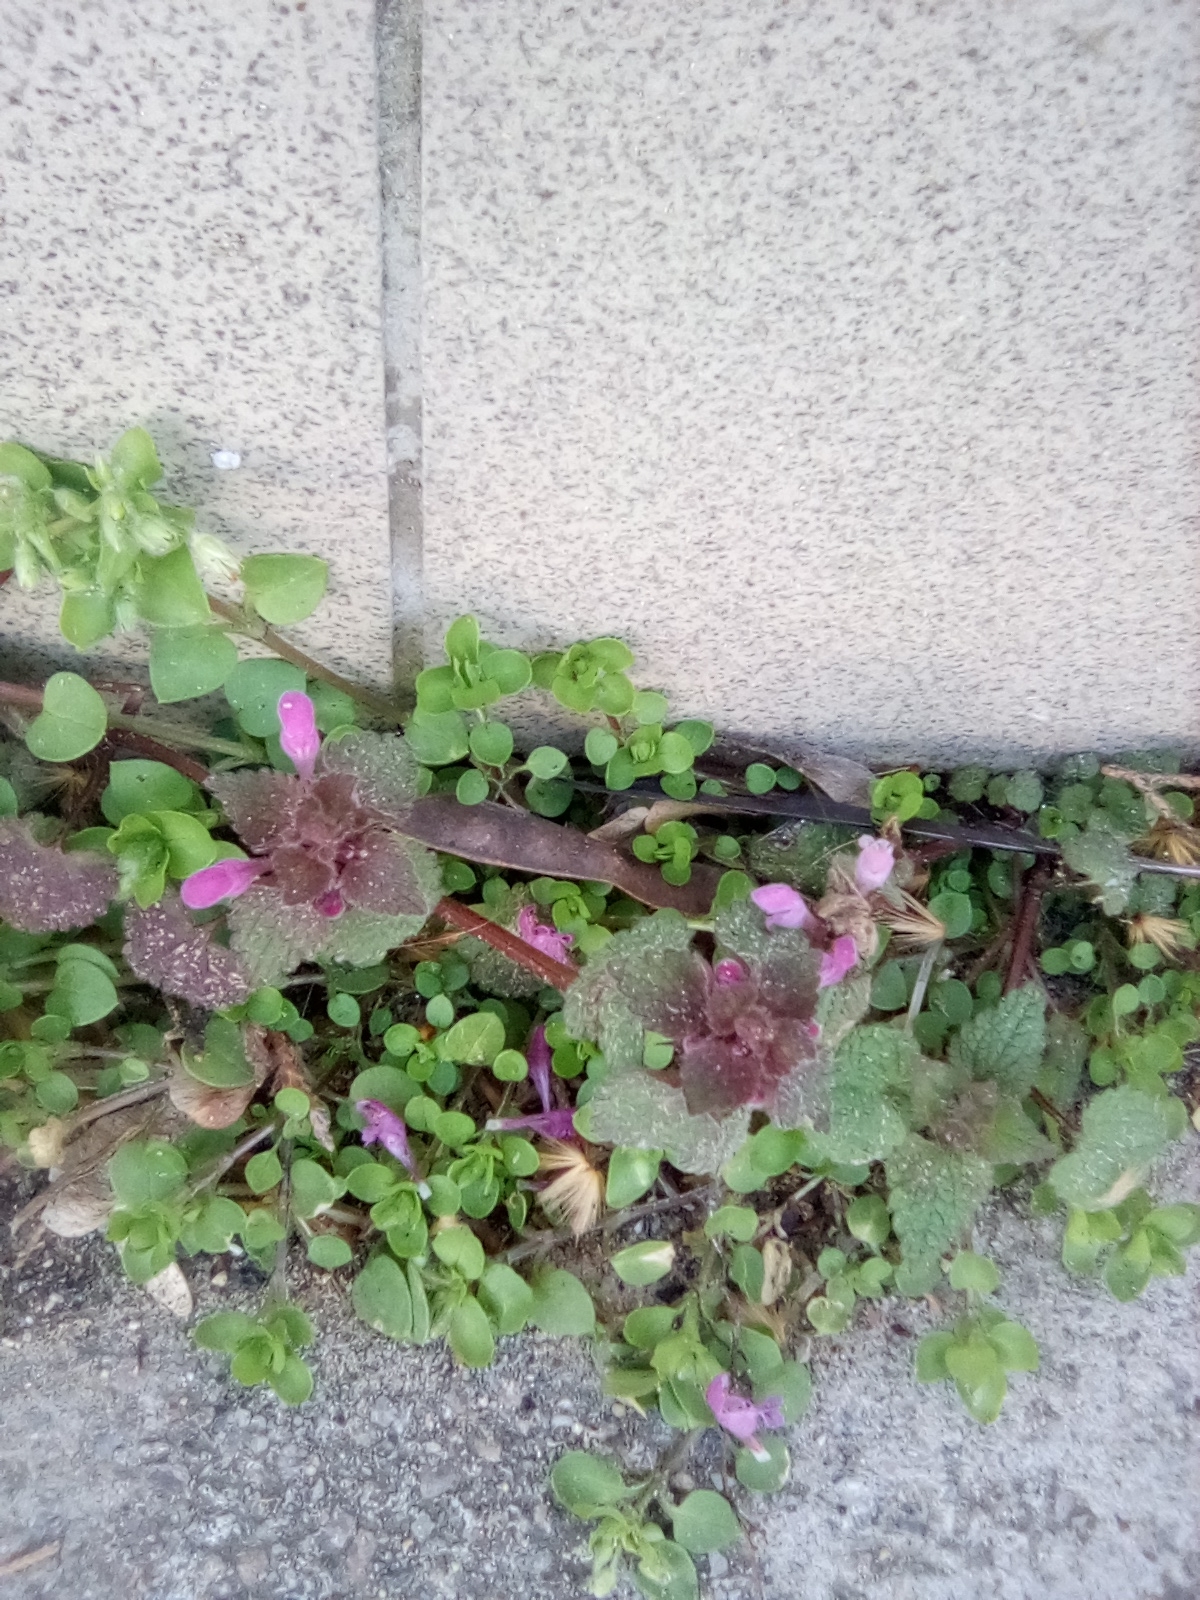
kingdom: Plantae
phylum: Tracheophyta
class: Magnoliopsida
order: Lamiales
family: Lamiaceae
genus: Lamium
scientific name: Lamium purpureum
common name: Red dead-nettle
